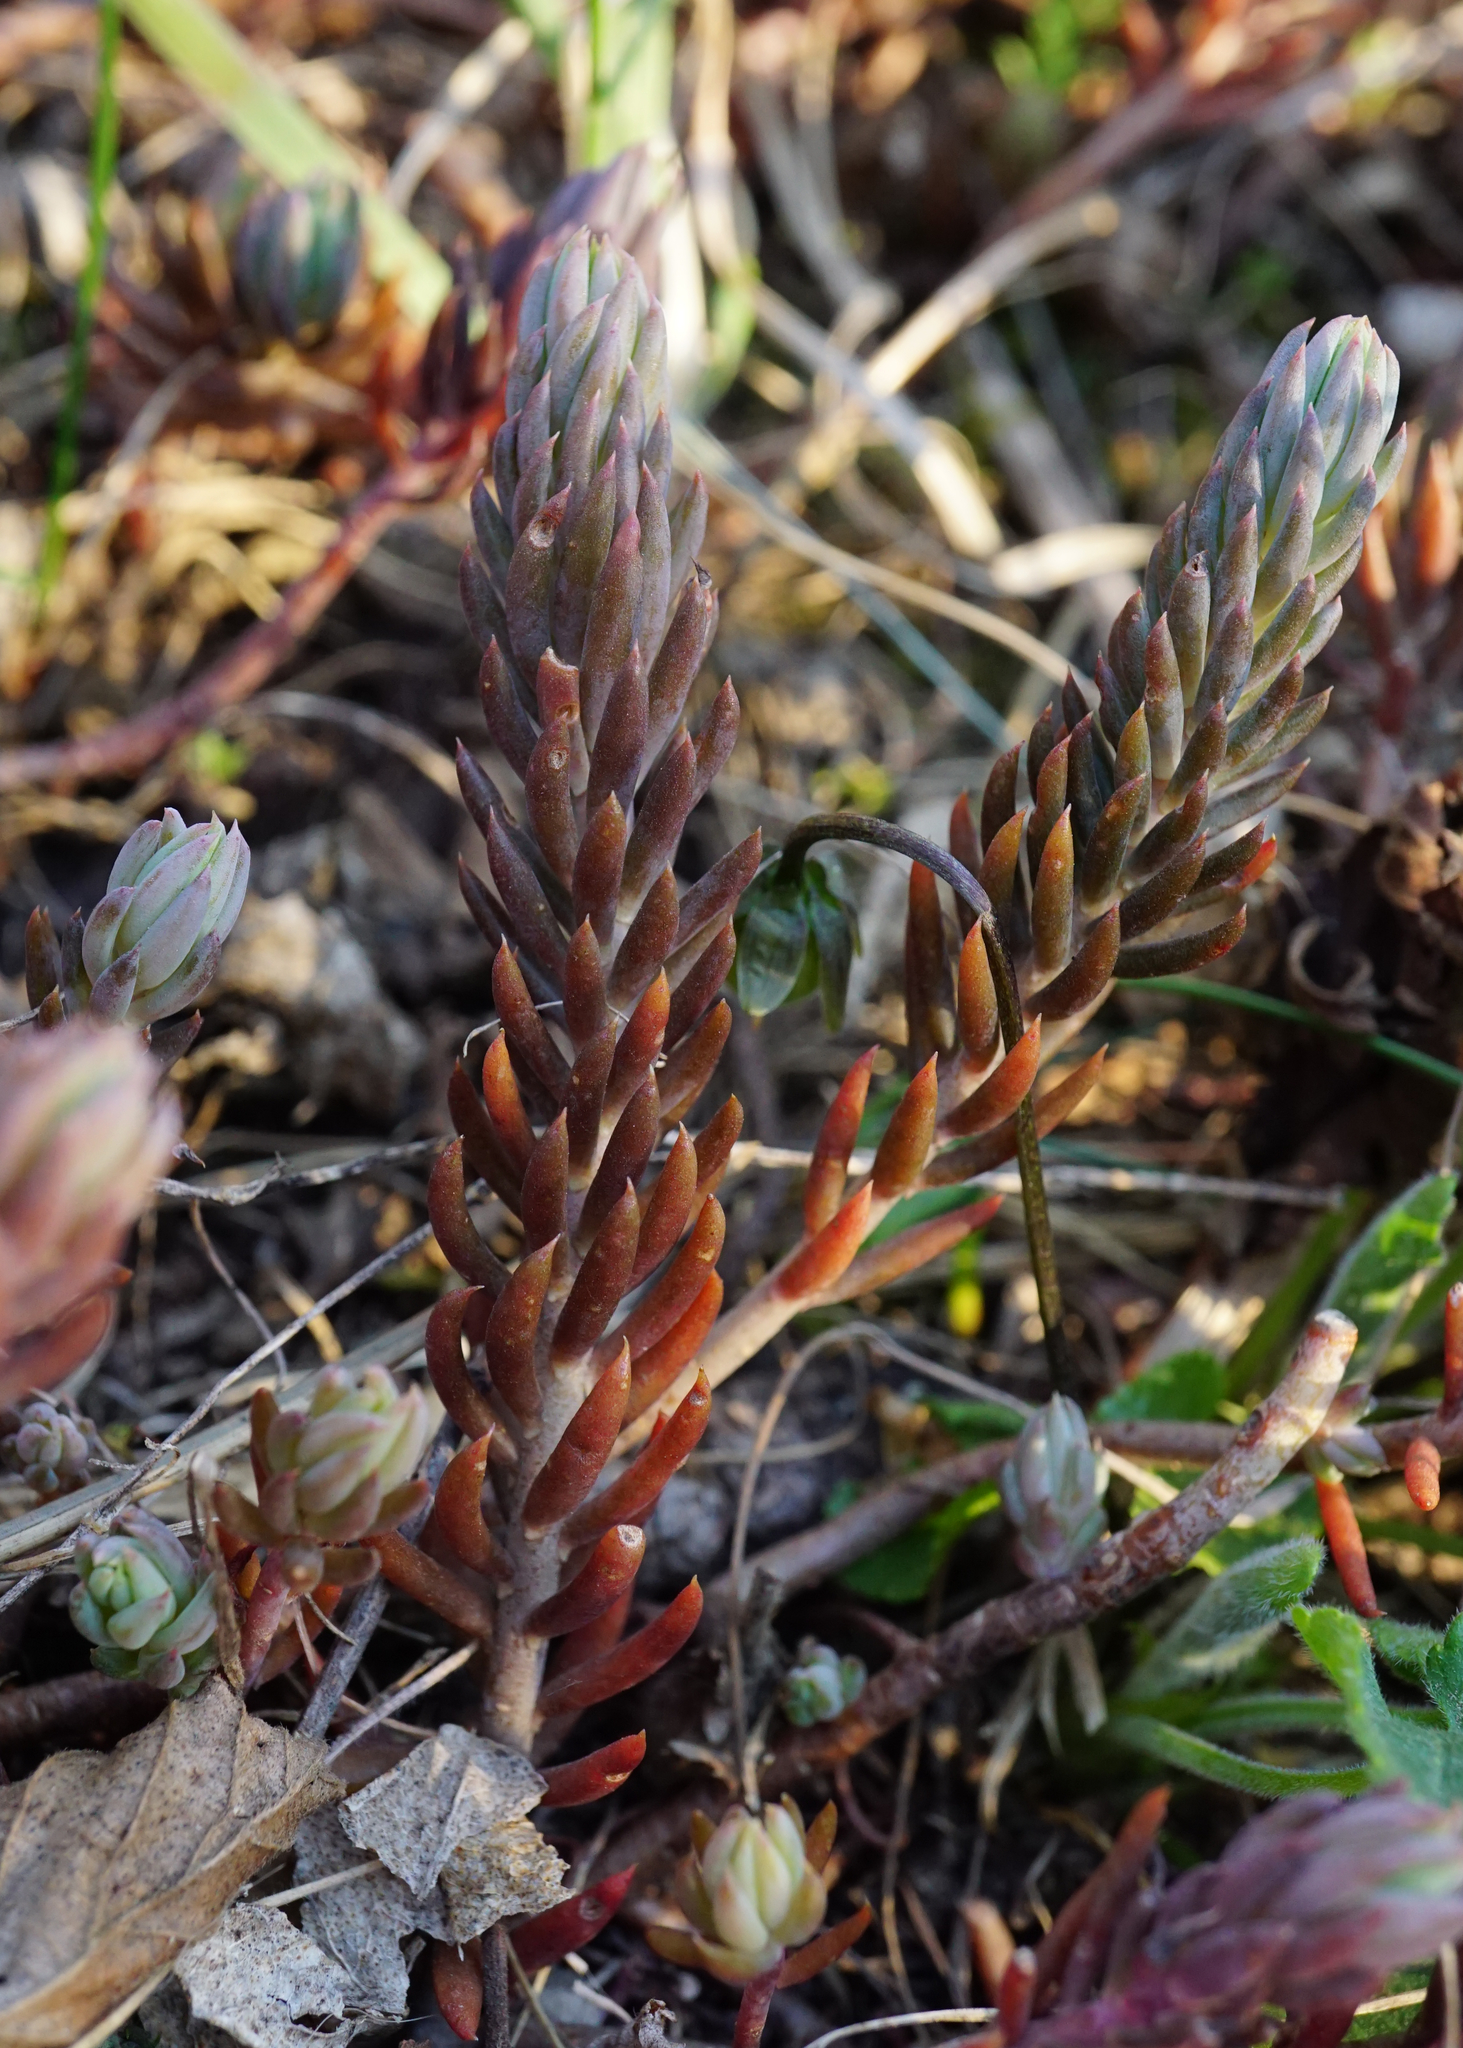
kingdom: Plantae
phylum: Tracheophyta
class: Magnoliopsida
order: Saxifragales
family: Crassulaceae
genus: Petrosedum
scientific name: Petrosedum
